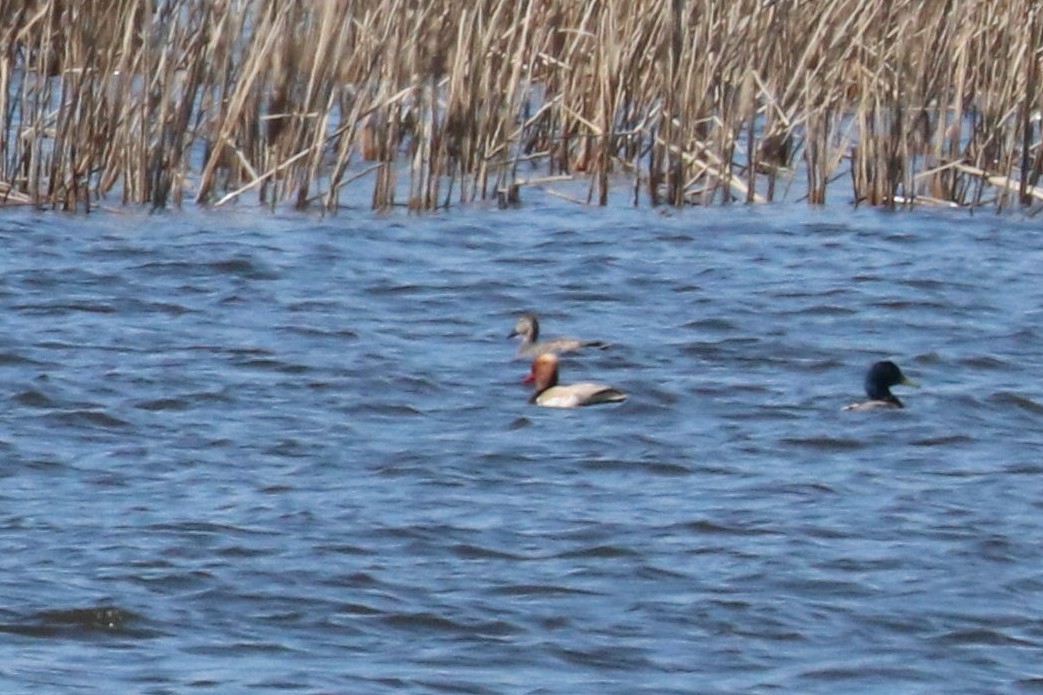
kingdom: Animalia
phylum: Chordata
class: Aves
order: Anseriformes
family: Anatidae
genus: Netta
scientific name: Netta rufina
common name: Red-crested pochard
